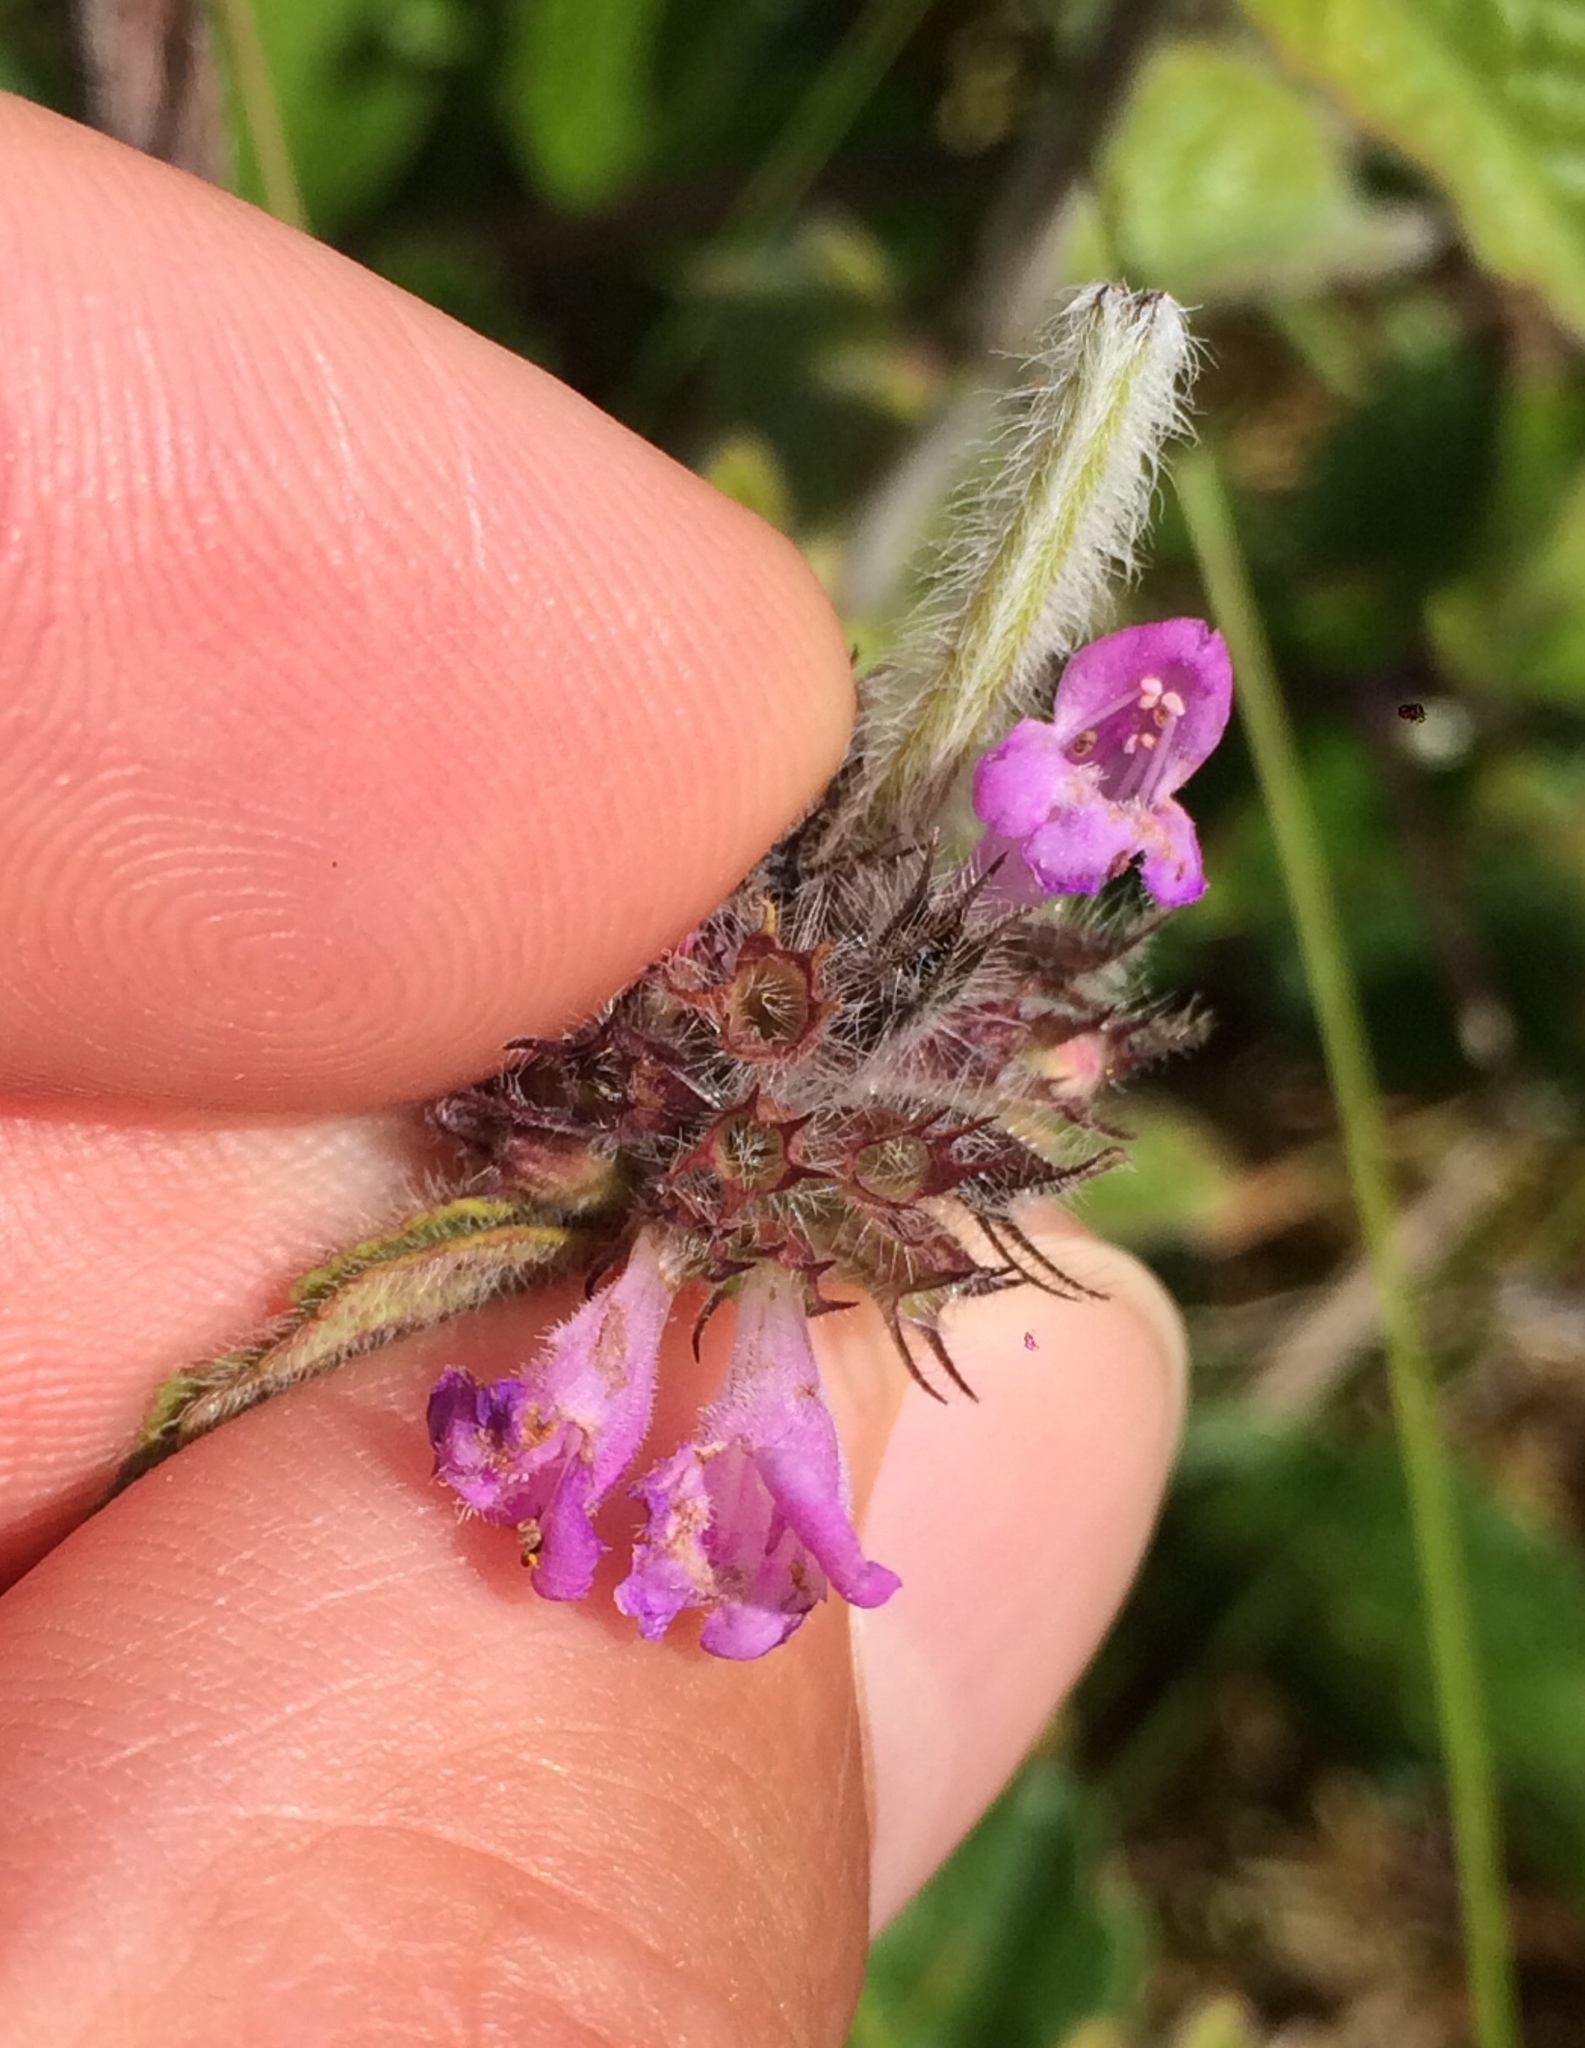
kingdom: Plantae
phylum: Tracheophyta
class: Magnoliopsida
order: Lamiales
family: Lamiaceae
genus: Clinopodium
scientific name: Clinopodium vulgare
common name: Wild basil
